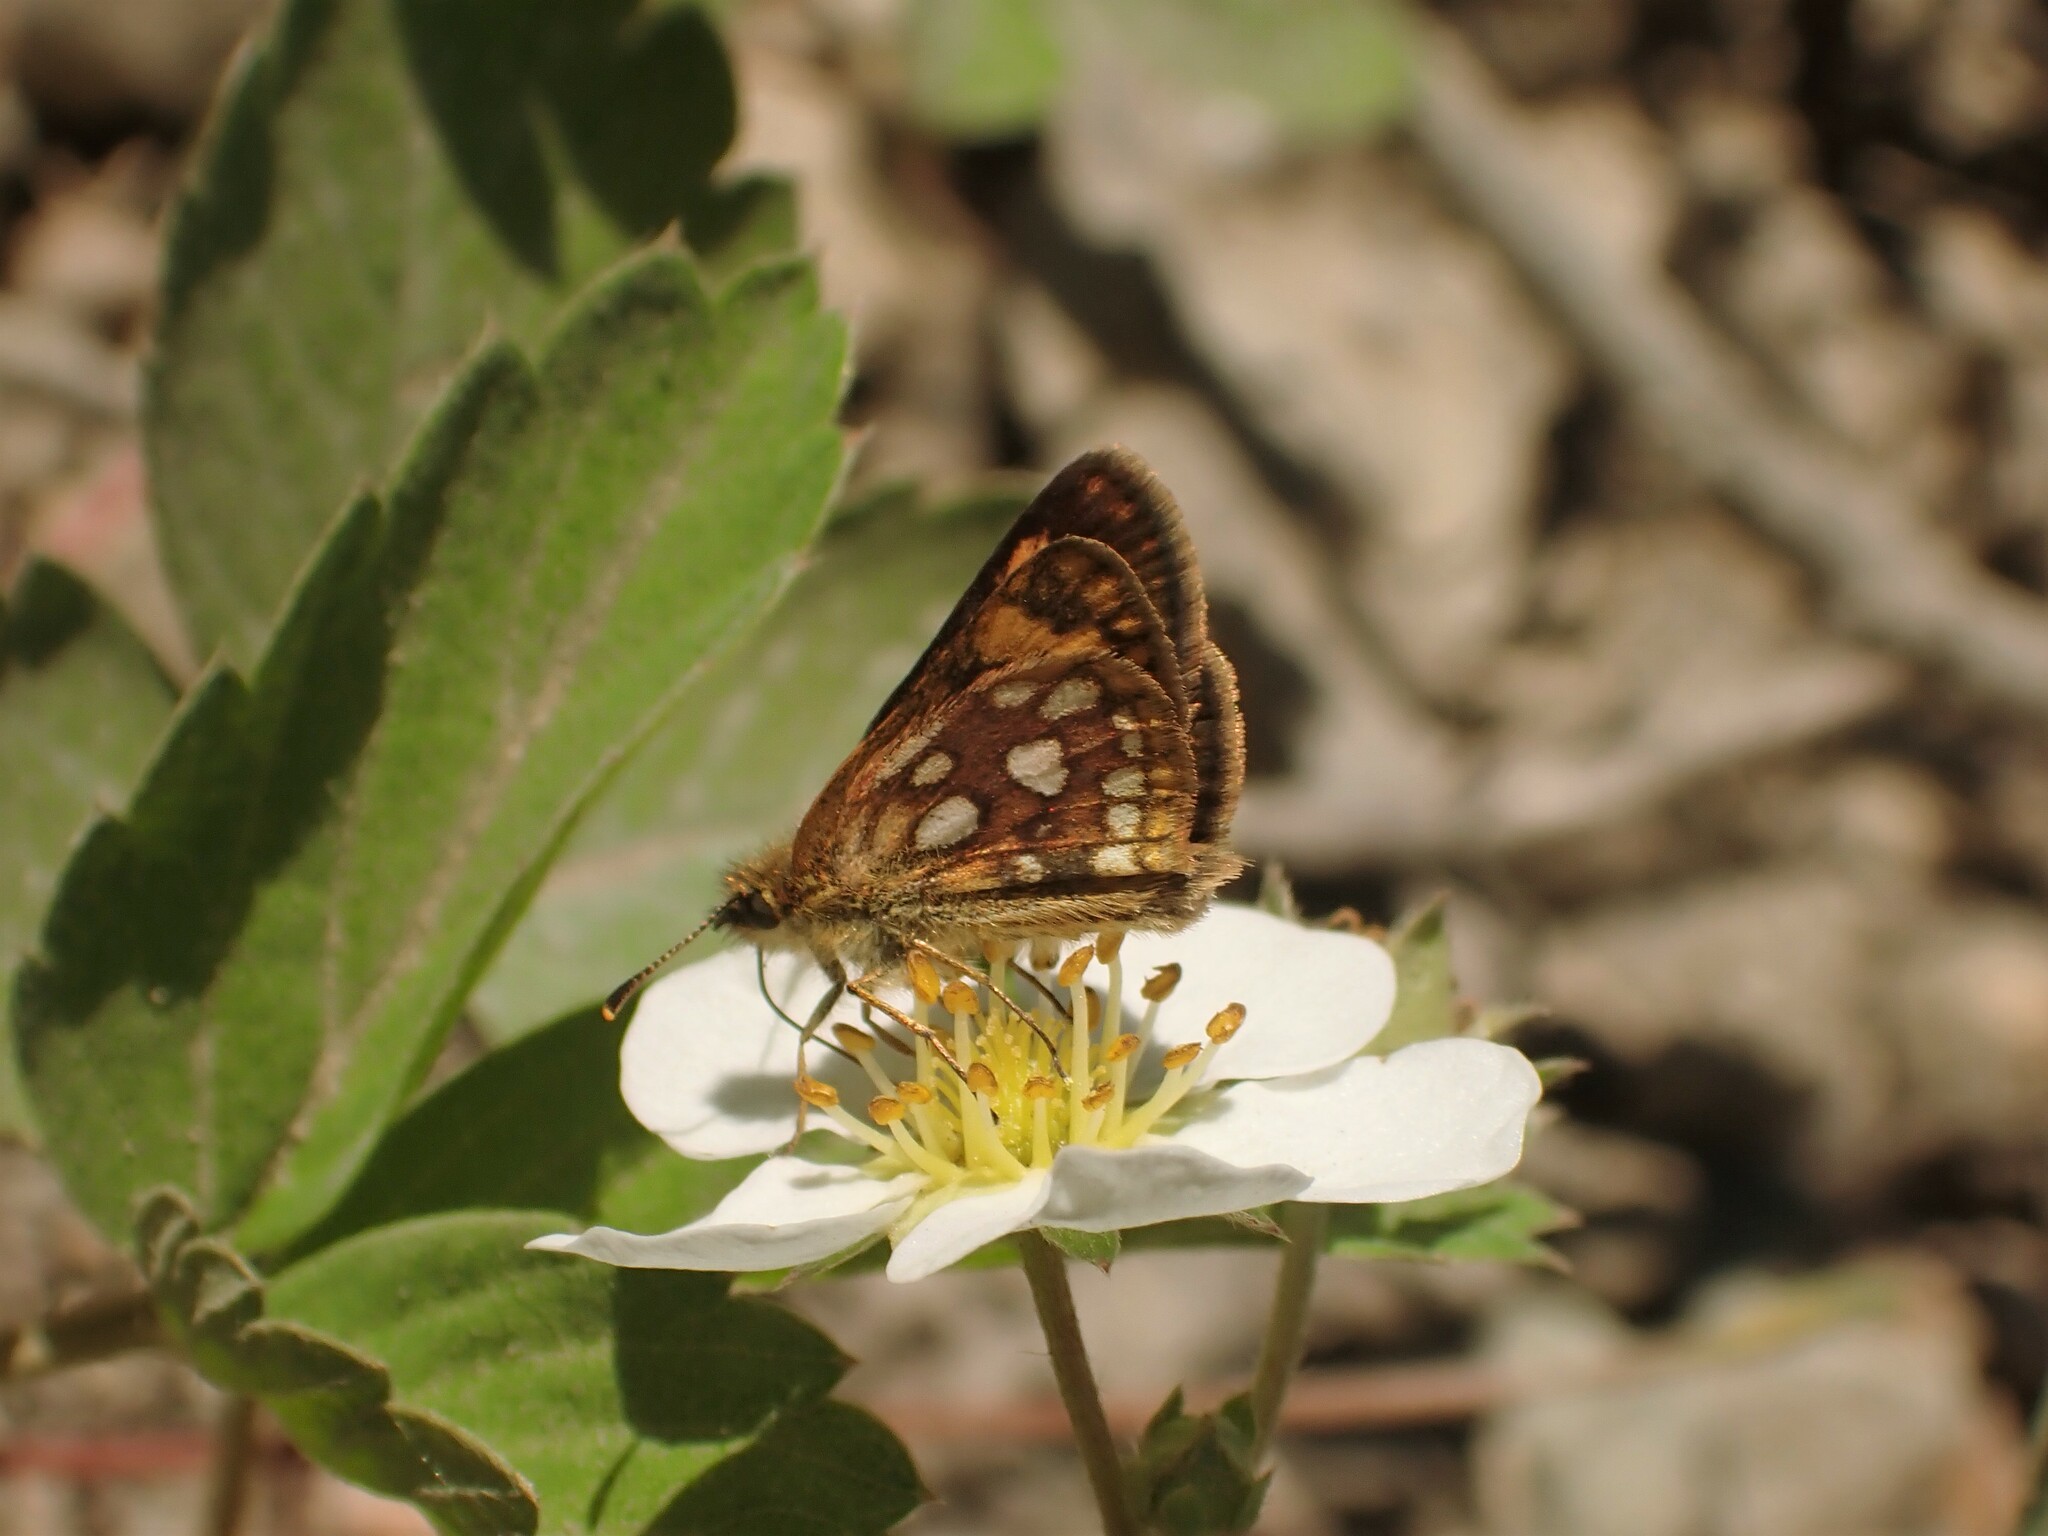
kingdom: Animalia
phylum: Arthropoda
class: Insecta
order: Lepidoptera
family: Hesperiidae
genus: Carterocephalus
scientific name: Carterocephalus mandan
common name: Arctic skipperling
